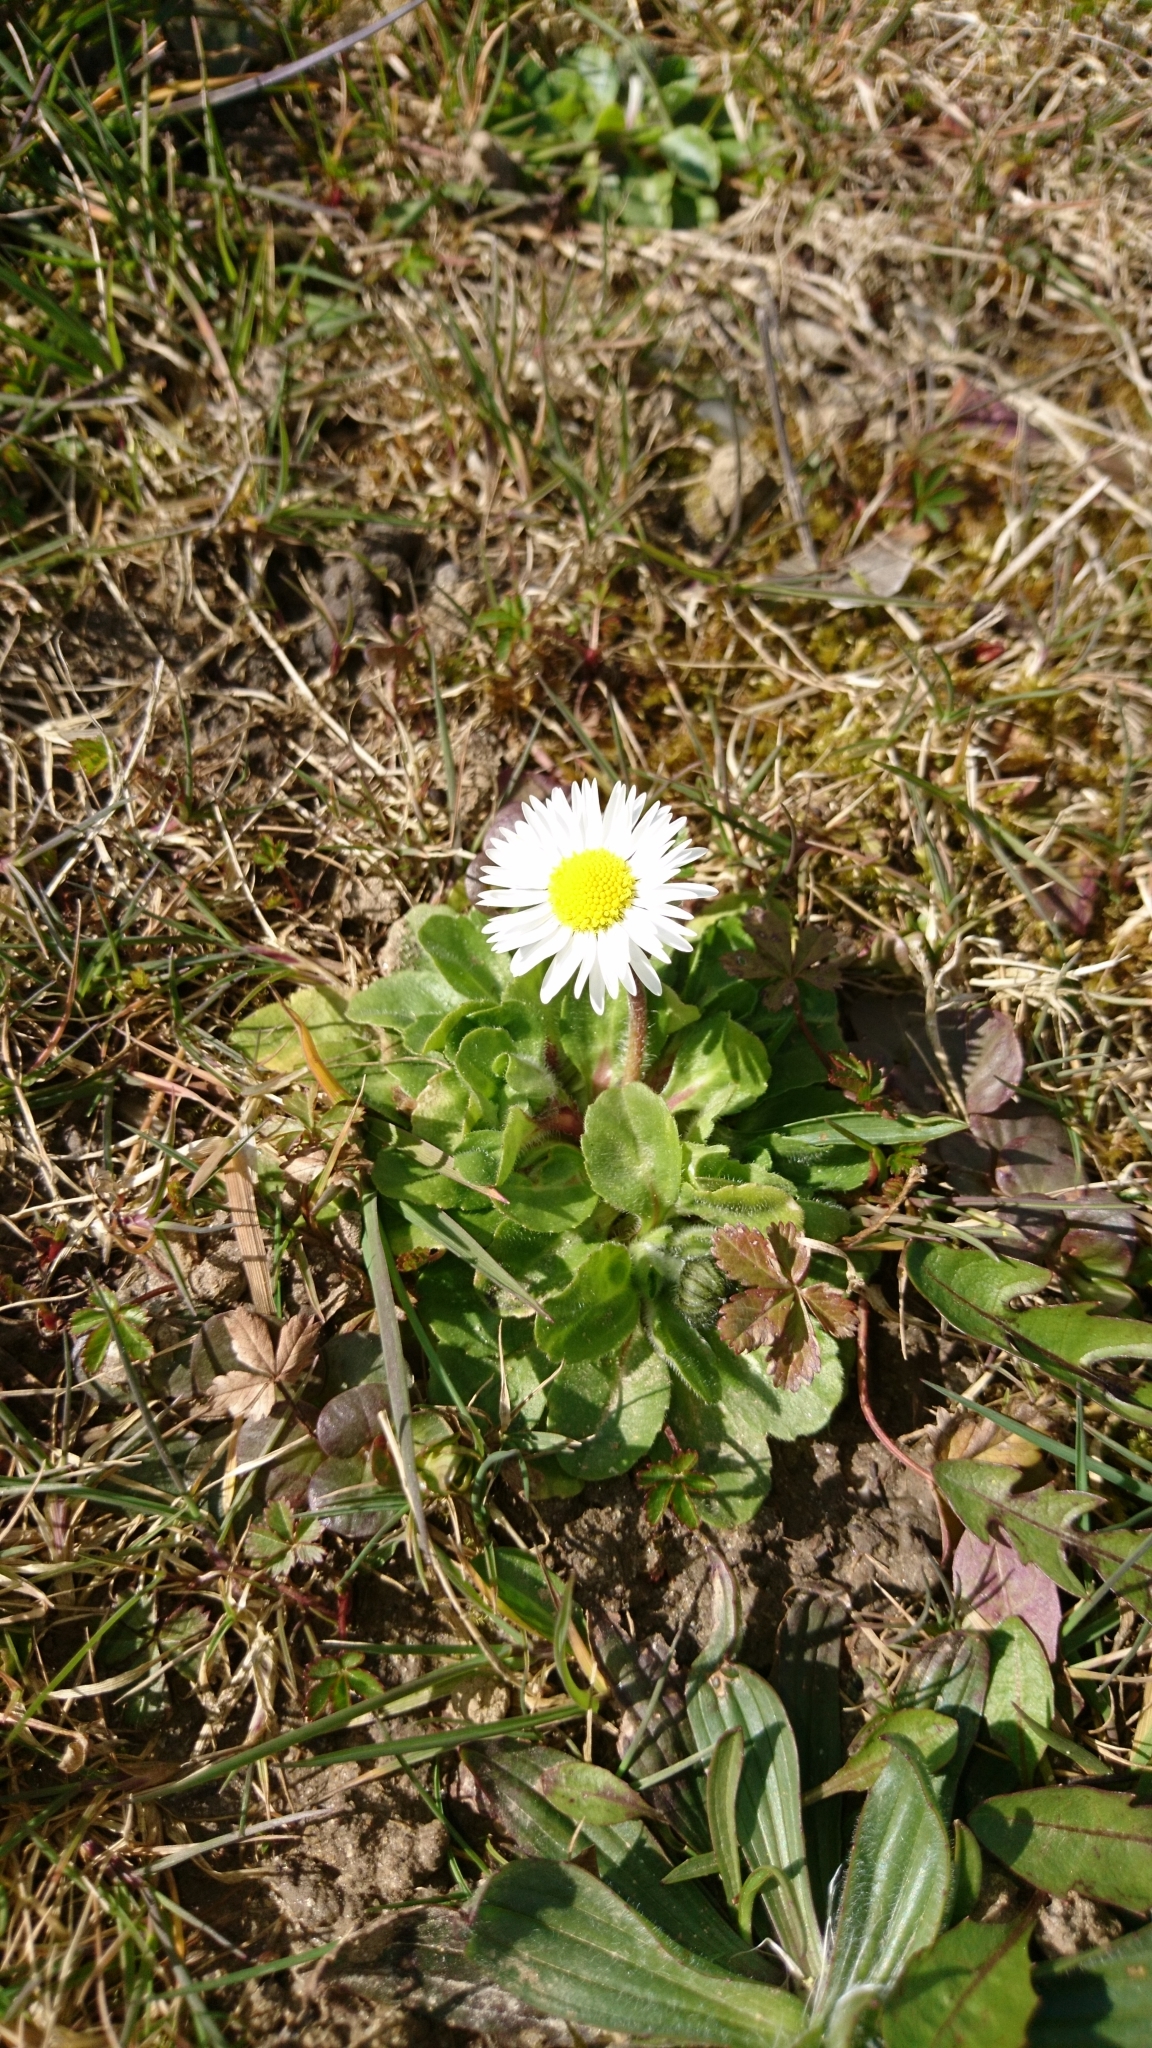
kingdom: Plantae
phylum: Tracheophyta
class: Magnoliopsida
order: Asterales
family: Asteraceae
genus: Bellis
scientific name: Bellis perennis
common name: Lawndaisy
